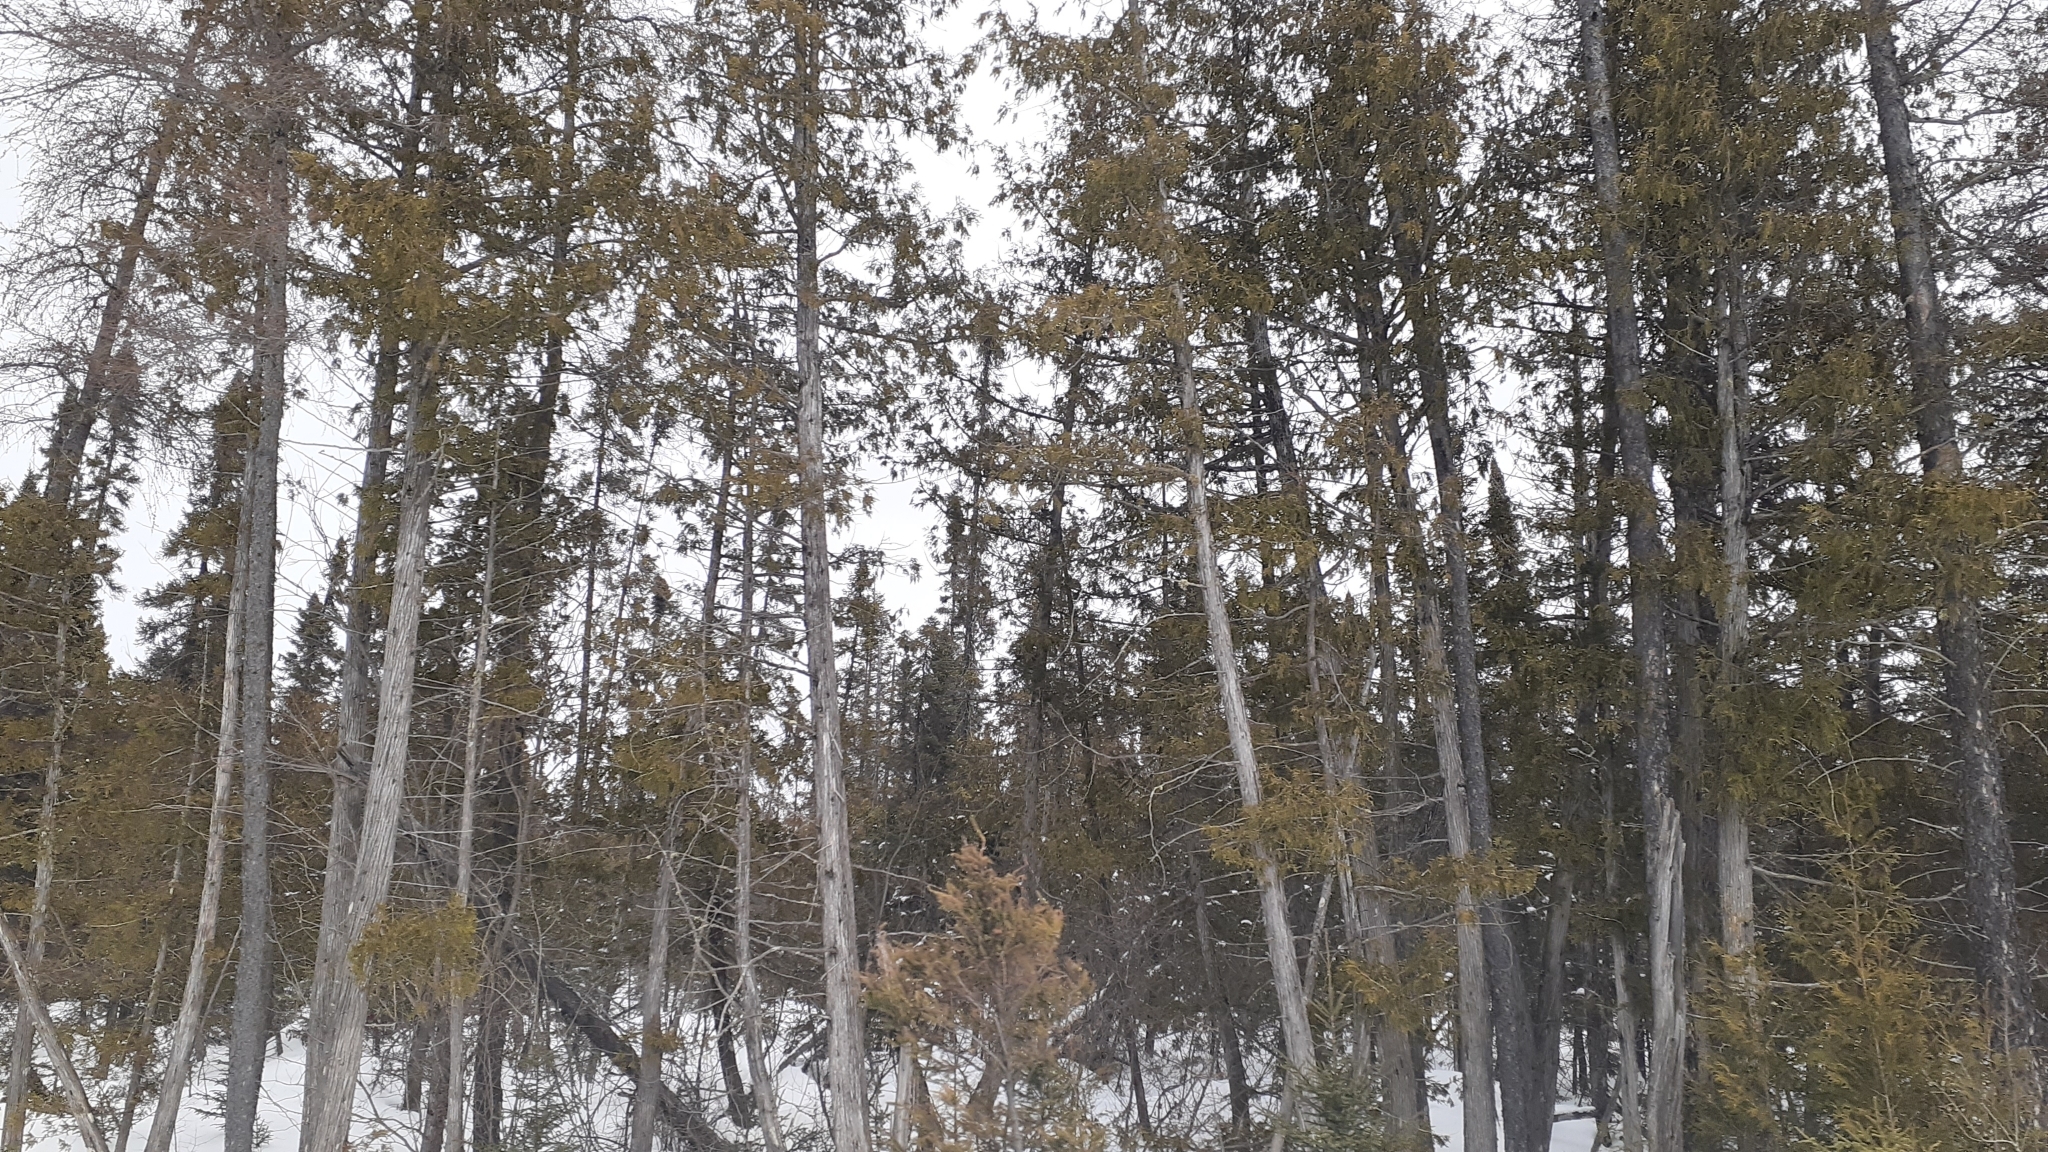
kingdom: Plantae
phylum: Tracheophyta
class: Pinopsida
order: Pinales
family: Cupressaceae
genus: Thuja
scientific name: Thuja occidentalis
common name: Northern white-cedar
